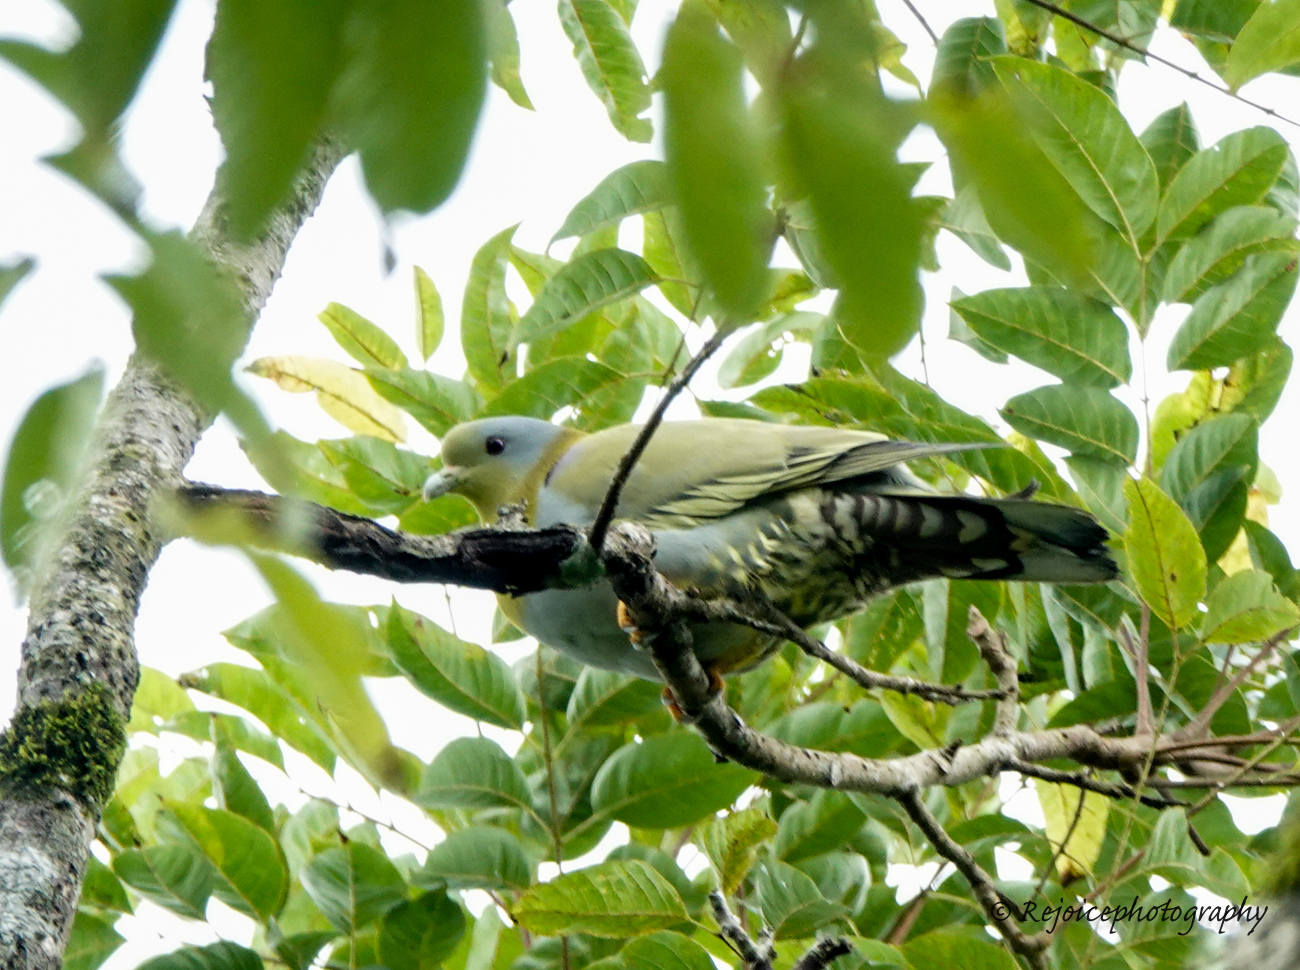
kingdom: Animalia
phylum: Chordata
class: Aves
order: Columbiformes
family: Columbidae
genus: Treron
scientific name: Treron phoenicopterus
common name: Yellow-footed green pigeon
